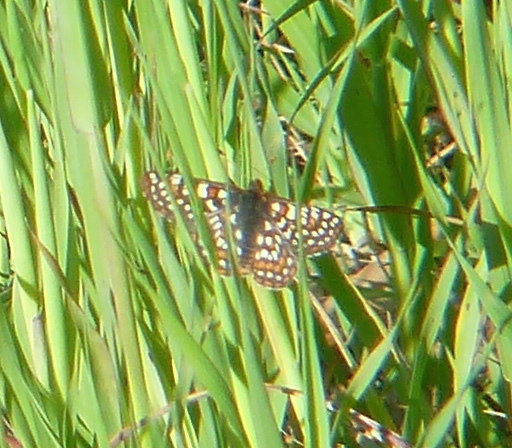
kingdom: Animalia
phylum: Arthropoda
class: Insecta
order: Lepidoptera
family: Nymphalidae
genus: Occidryas
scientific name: Occidryas chalcedona
